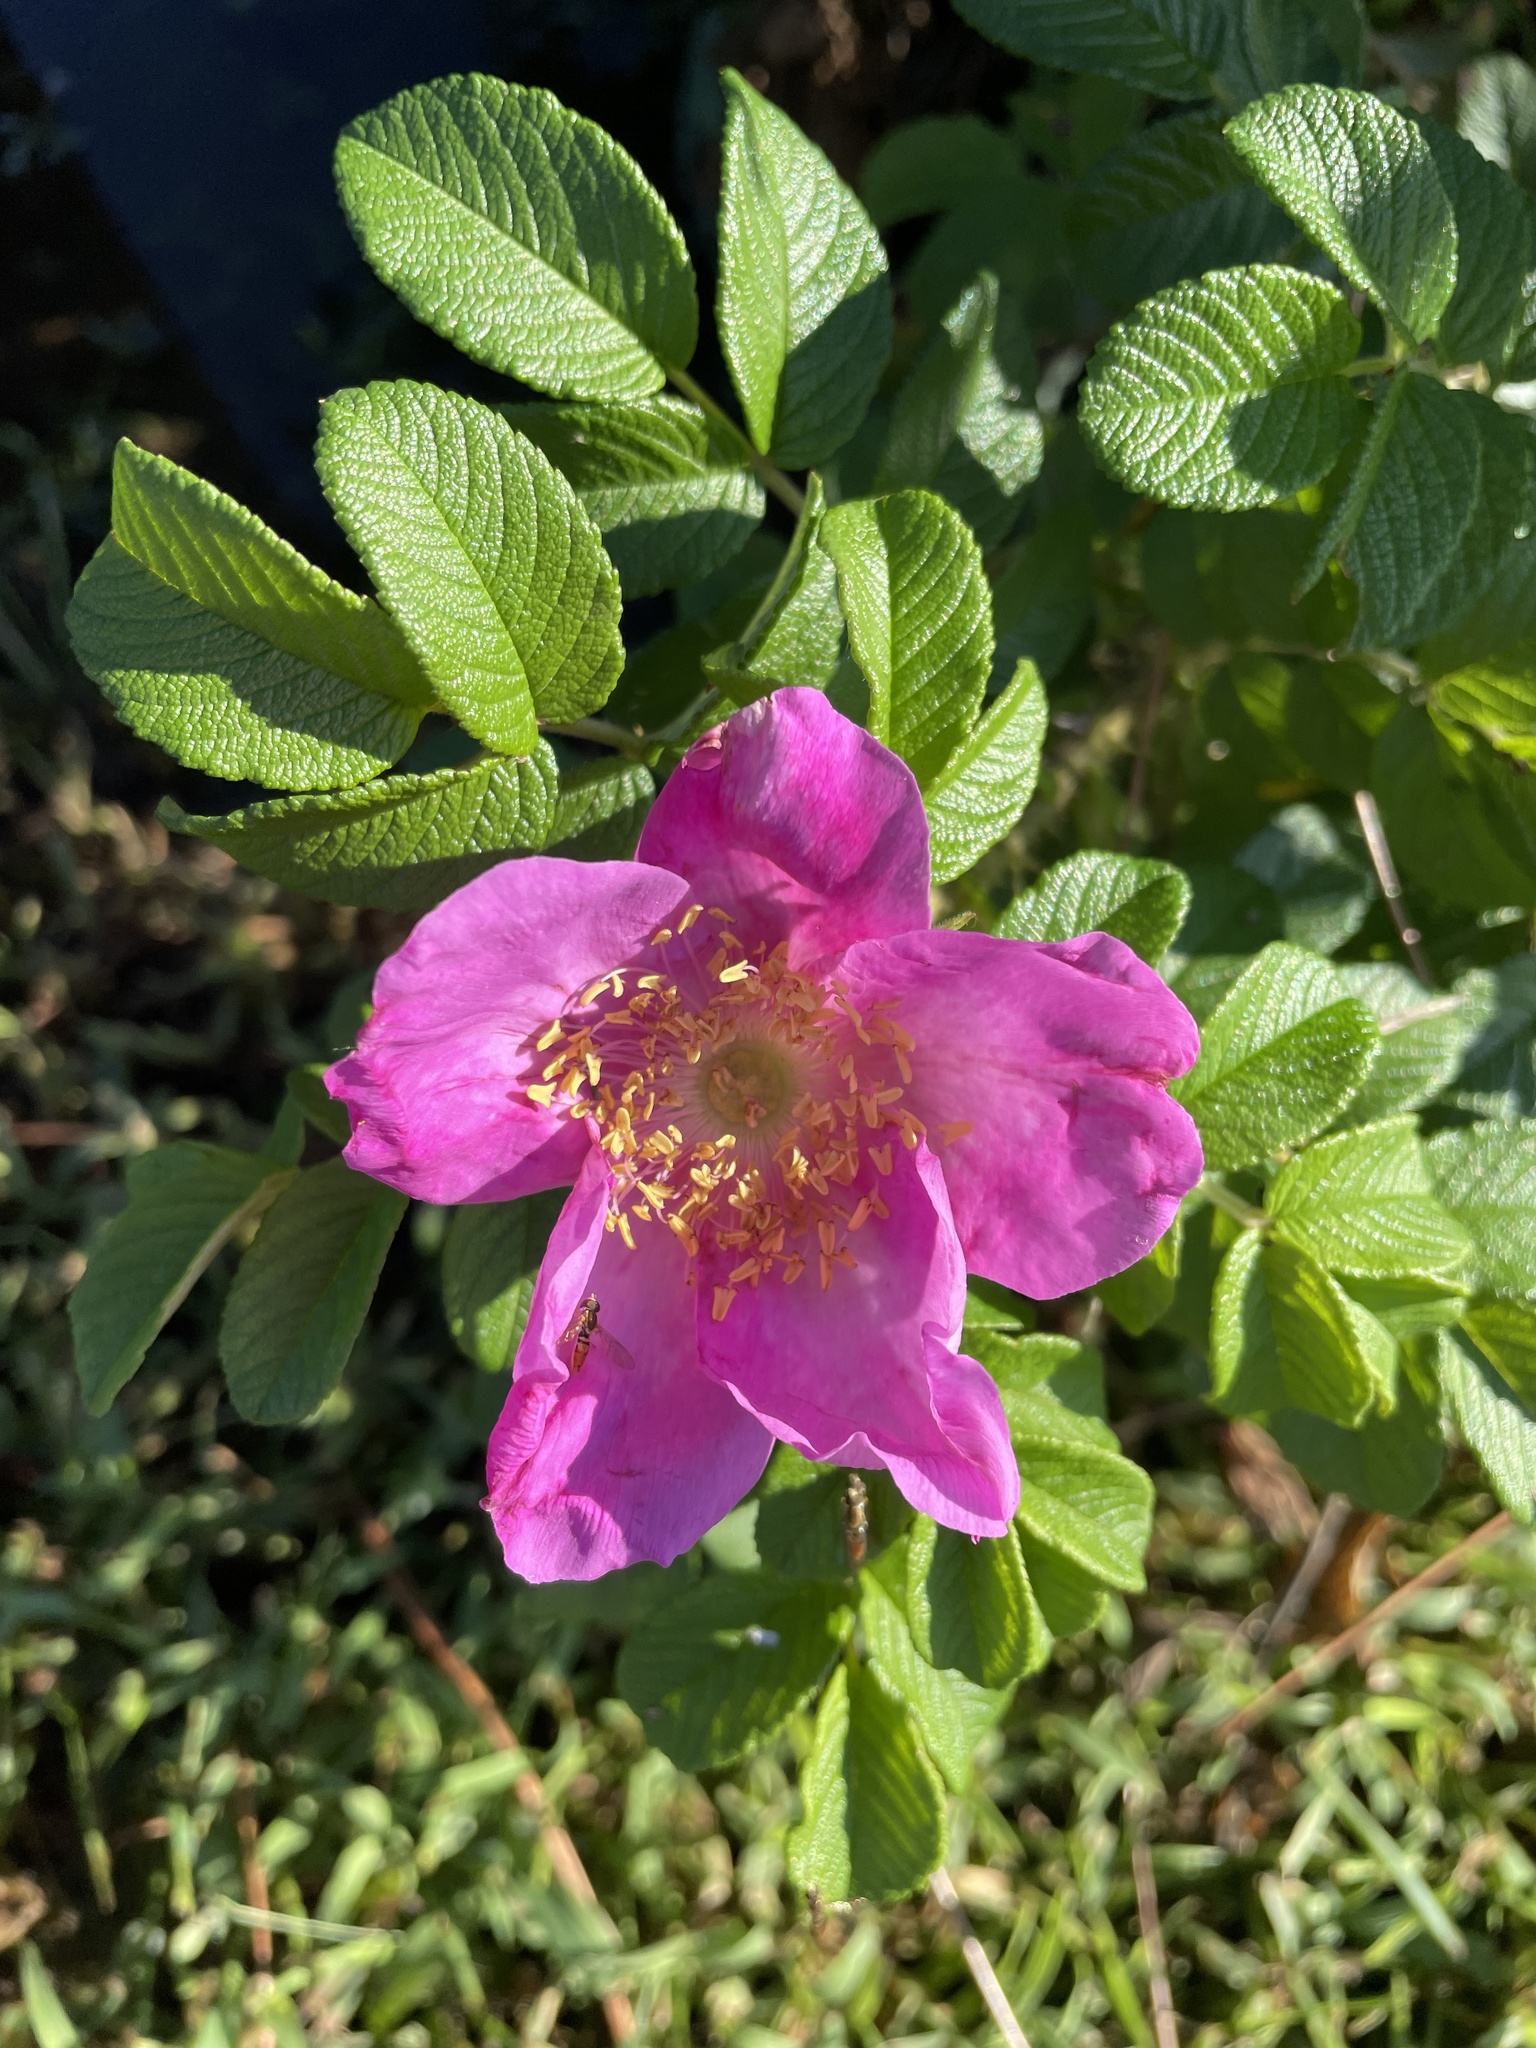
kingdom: Plantae
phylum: Tracheophyta
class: Magnoliopsida
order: Rosales
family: Rosaceae
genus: Rosa
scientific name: Rosa rugosa
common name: Japanese rose
